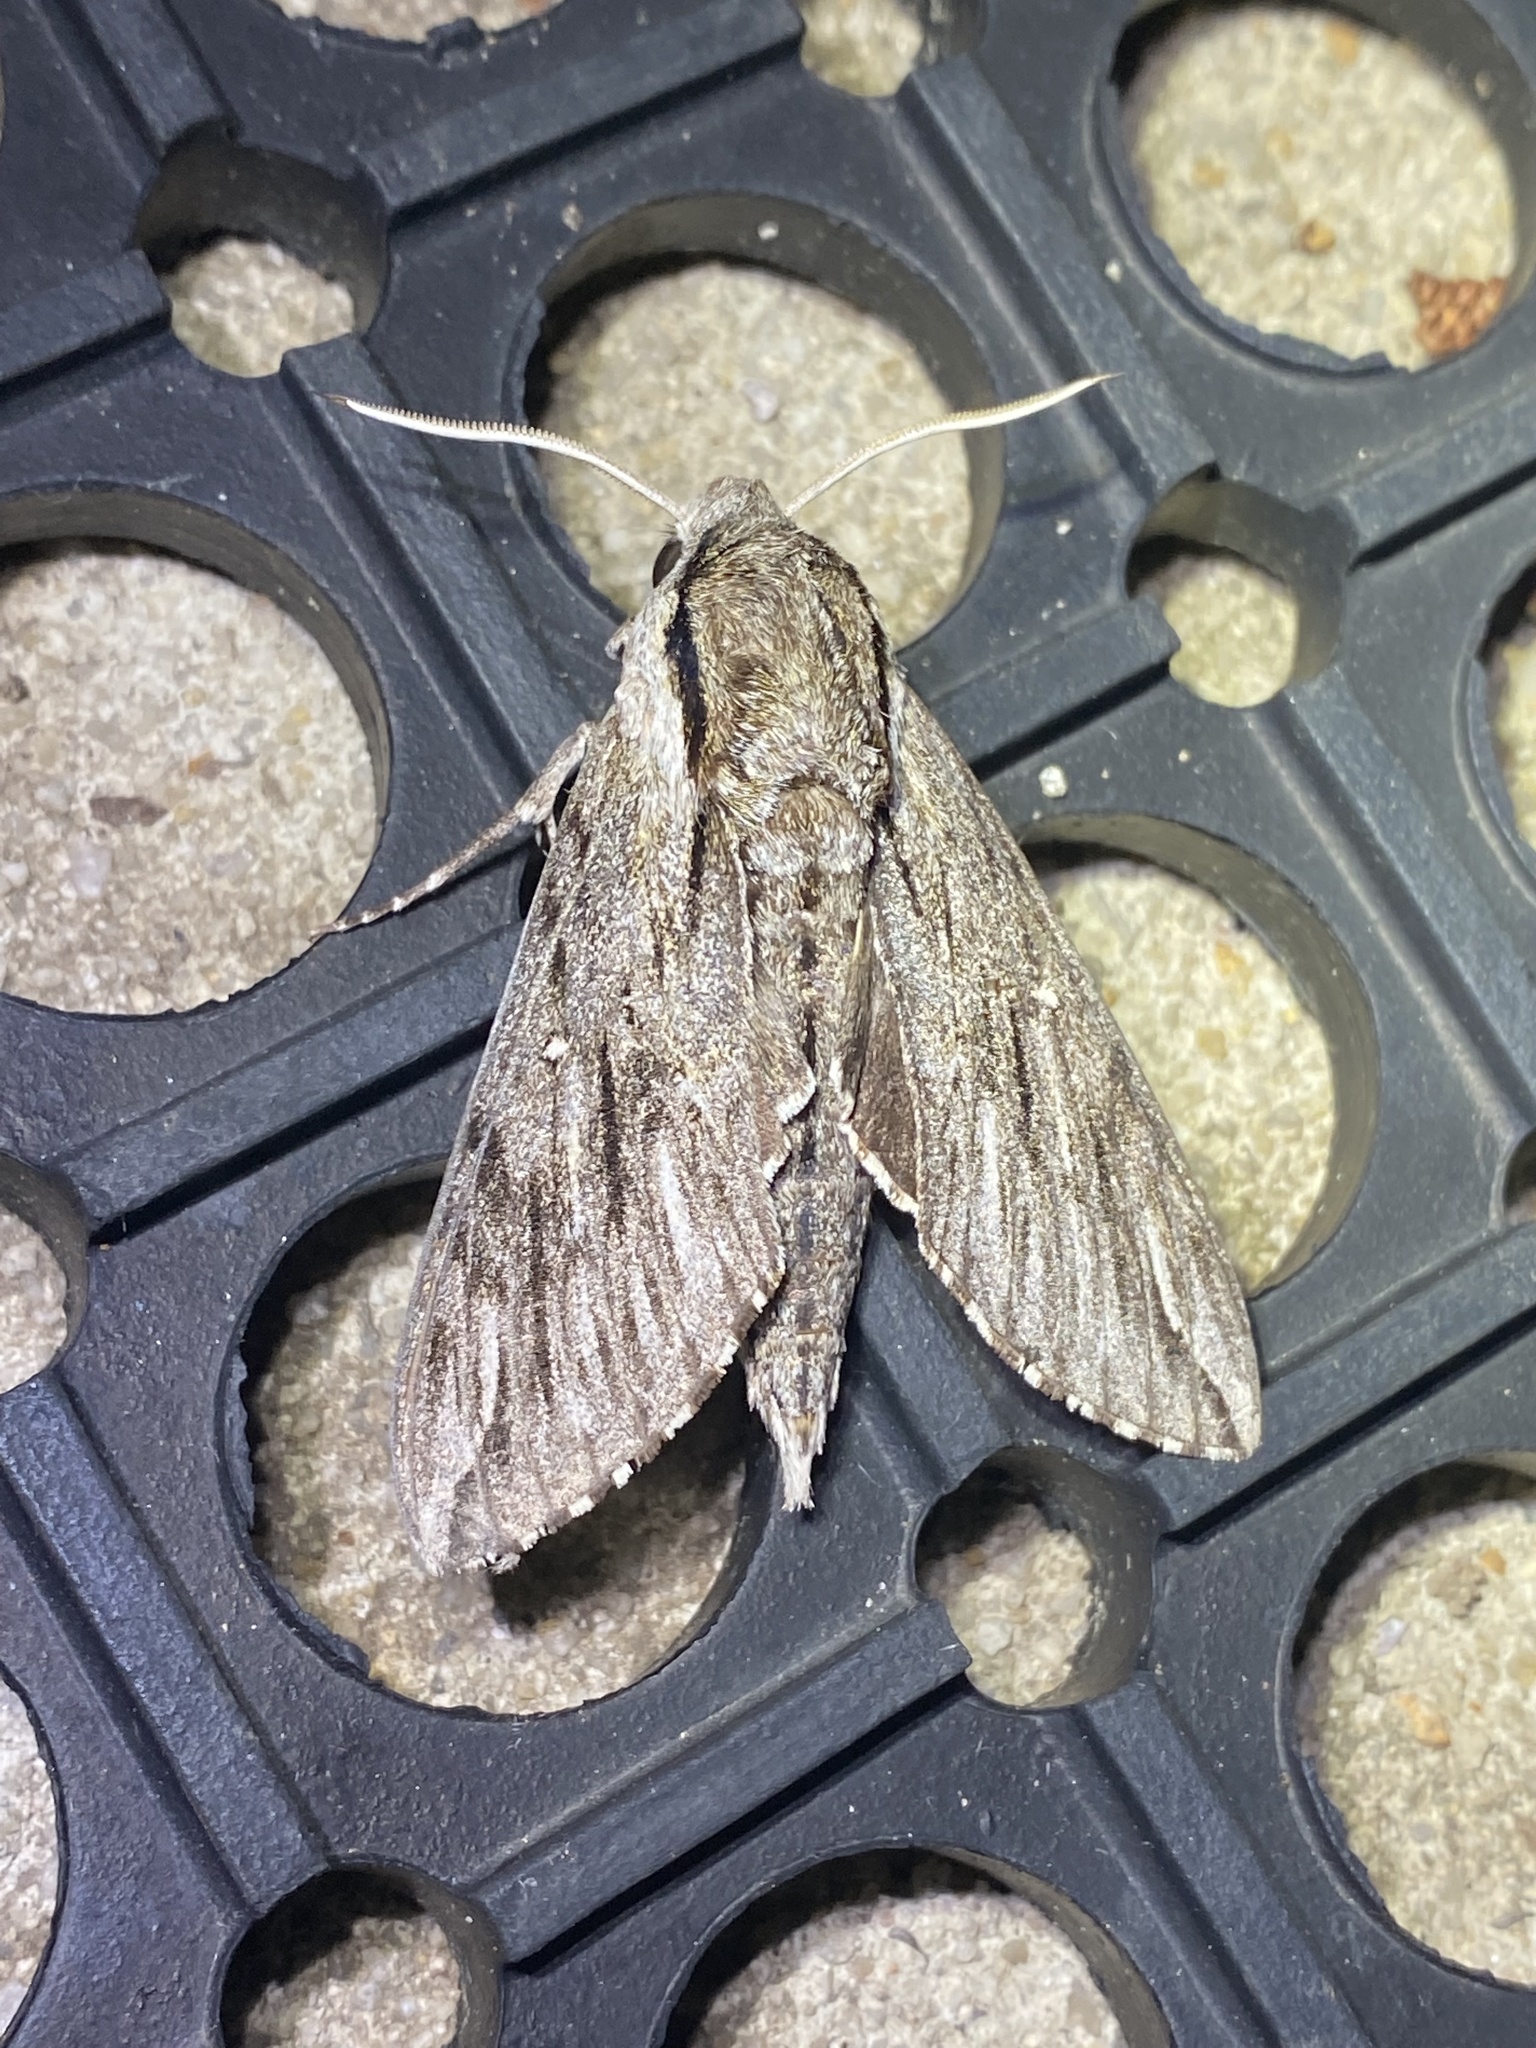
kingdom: Animalia
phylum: Arthropoda
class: Insecta
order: Lepidoptera
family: Sphingidae
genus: Paratrea
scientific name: Paratrea plebeja
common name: Plebian sphinx
